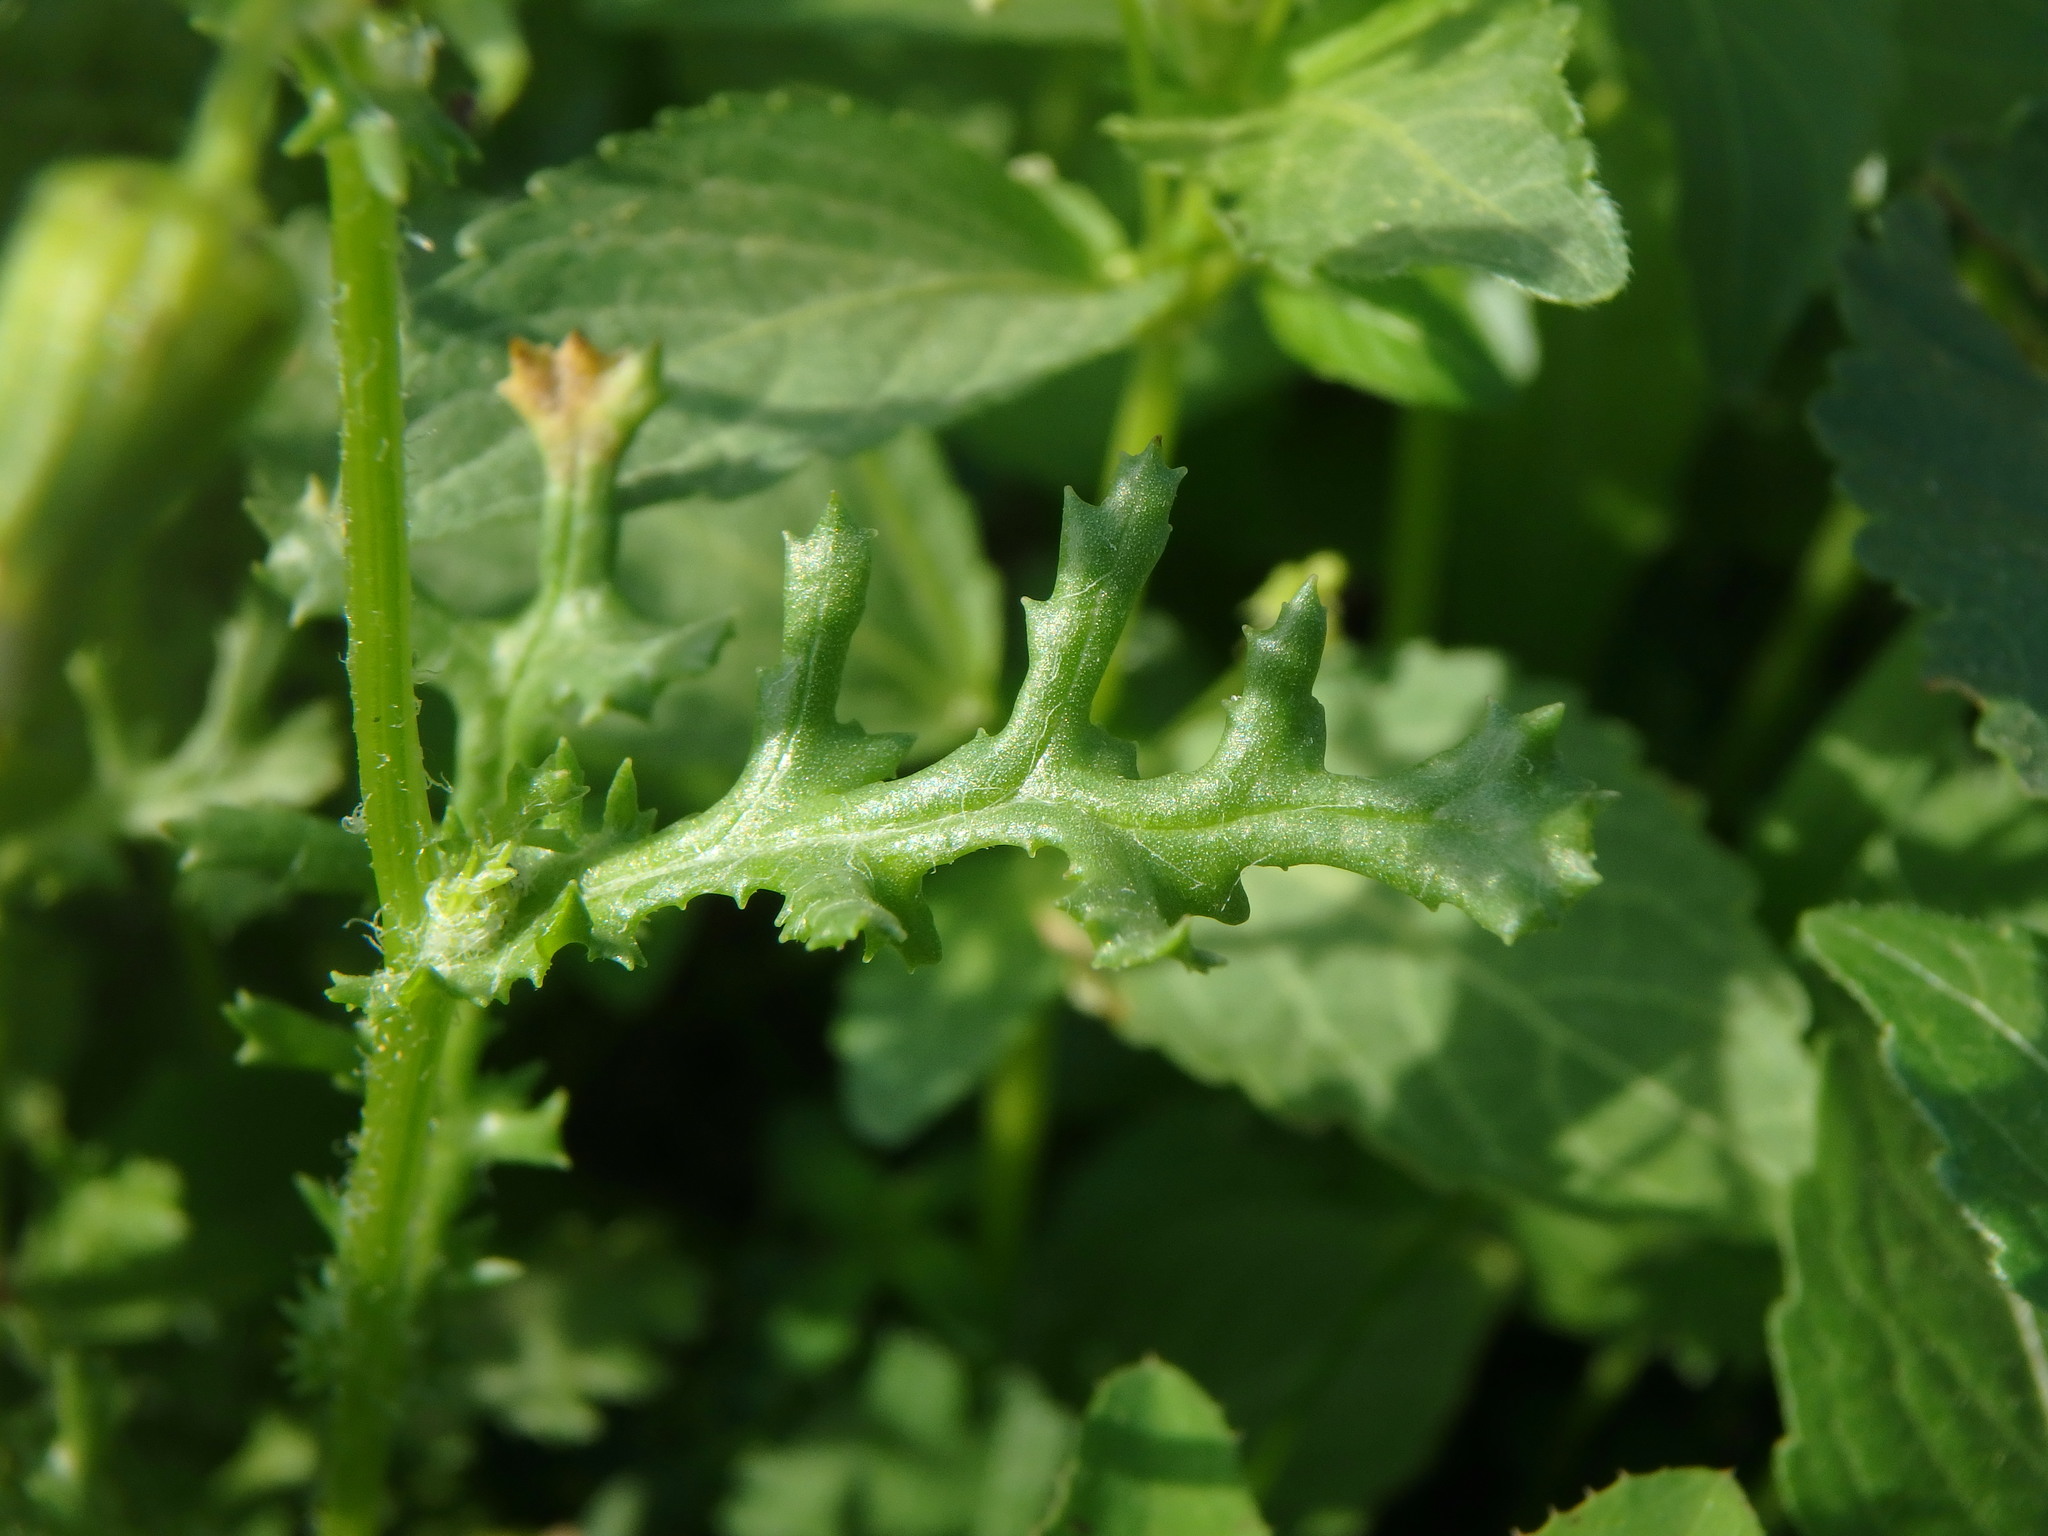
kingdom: Plantae
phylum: Tracheophyta
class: Magnoliopsida
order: Asterales
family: Asteraceae
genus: Senecio
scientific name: Senecio vulgaris
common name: Old-man-in-the-spring
